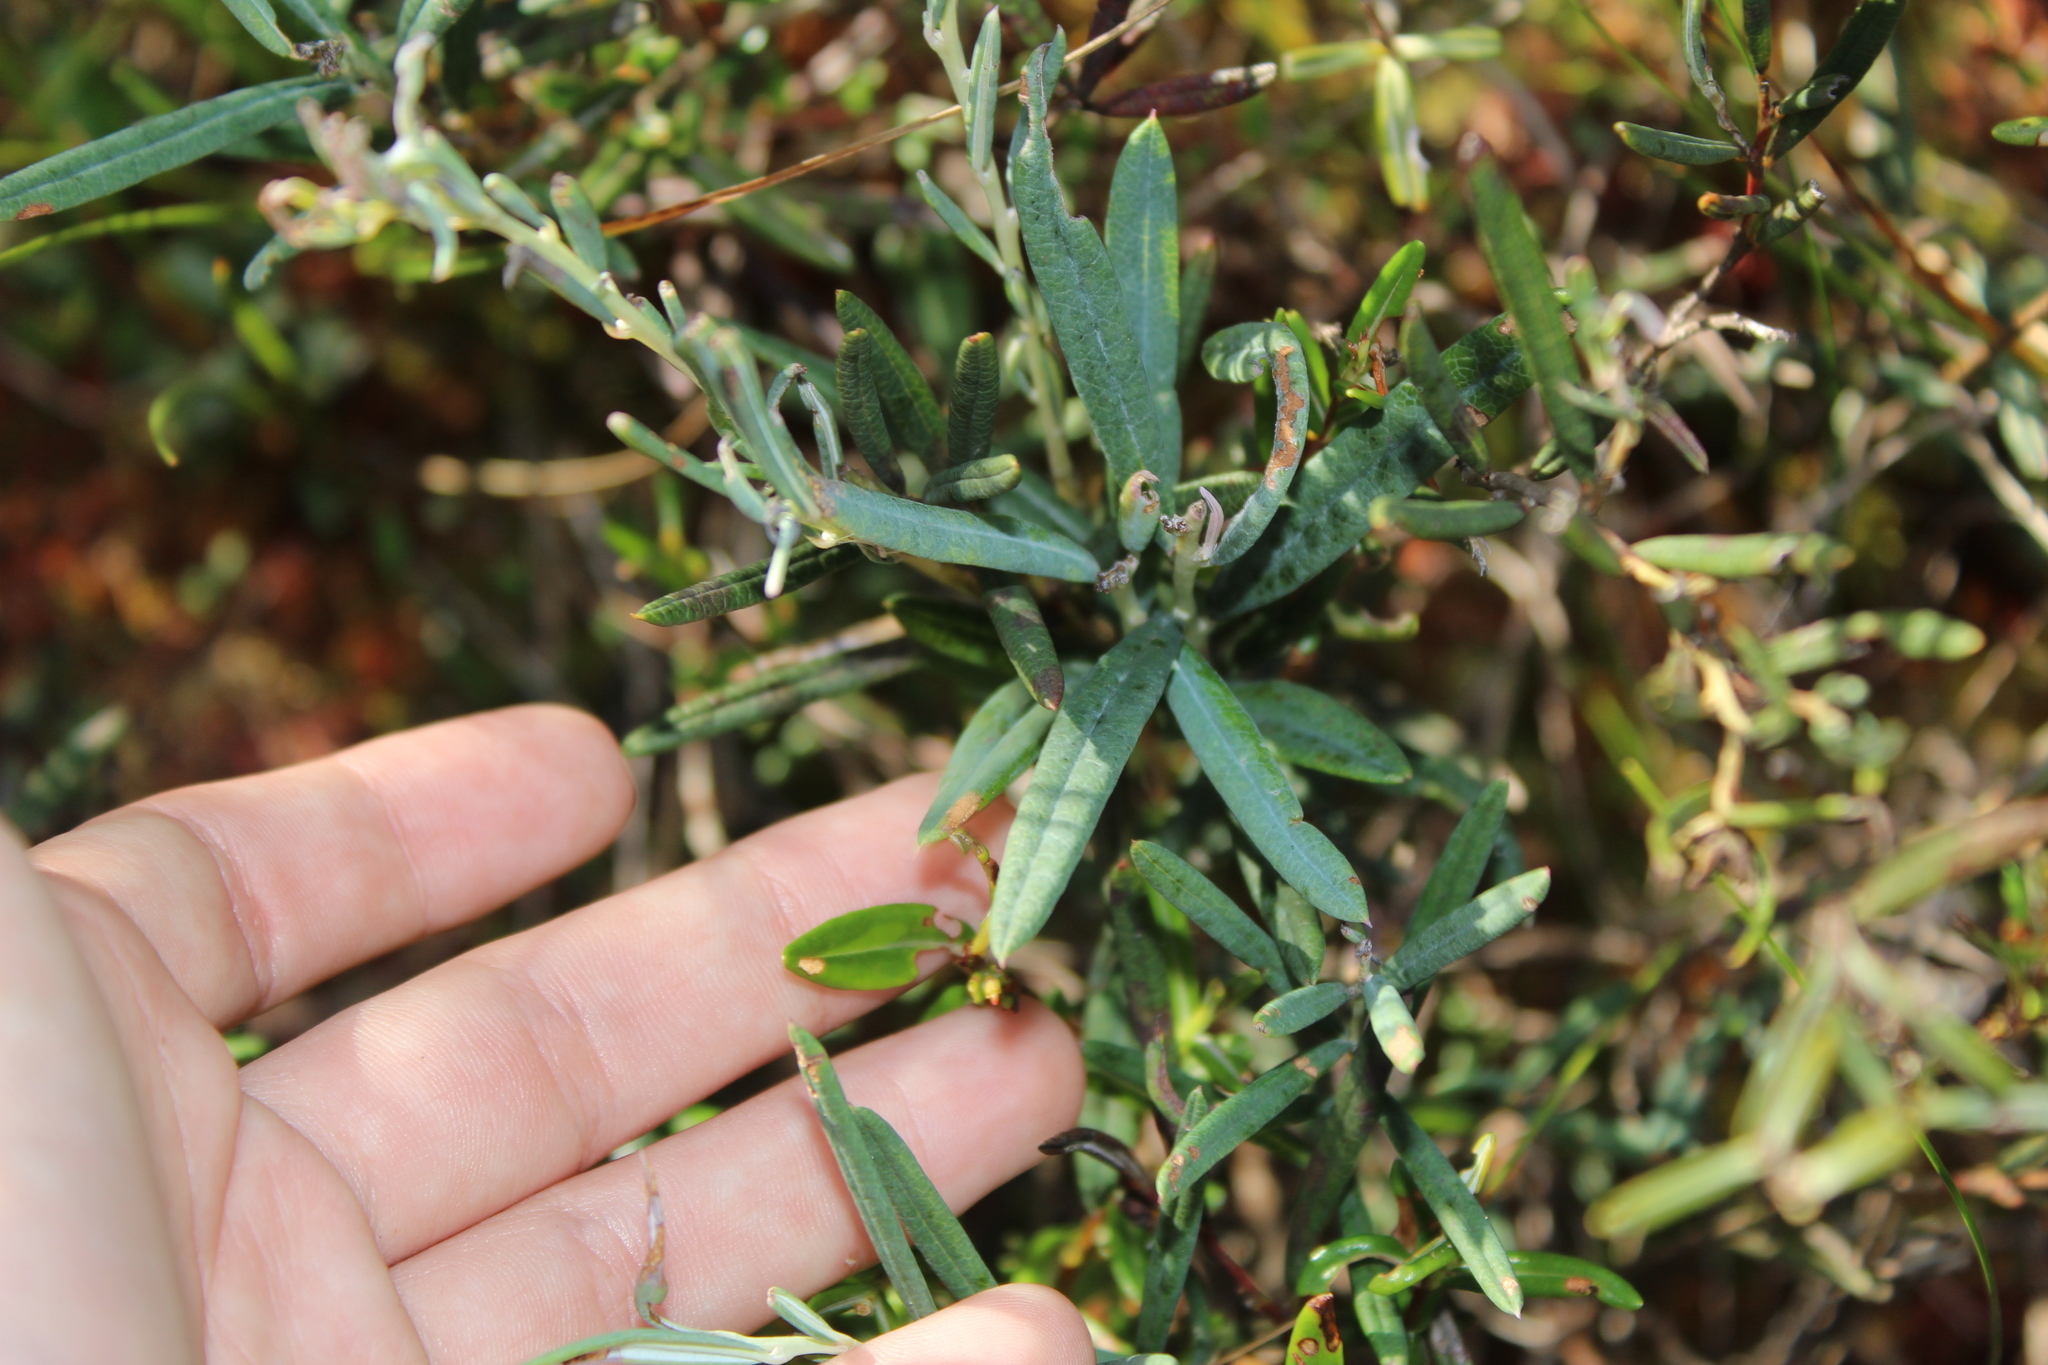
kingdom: Plantae
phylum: Tracheophyta
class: Magnoliopsida
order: Ericales
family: Ericaceae
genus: Andromeda
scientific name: Andromeda polifolia
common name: Bog-rosemary
